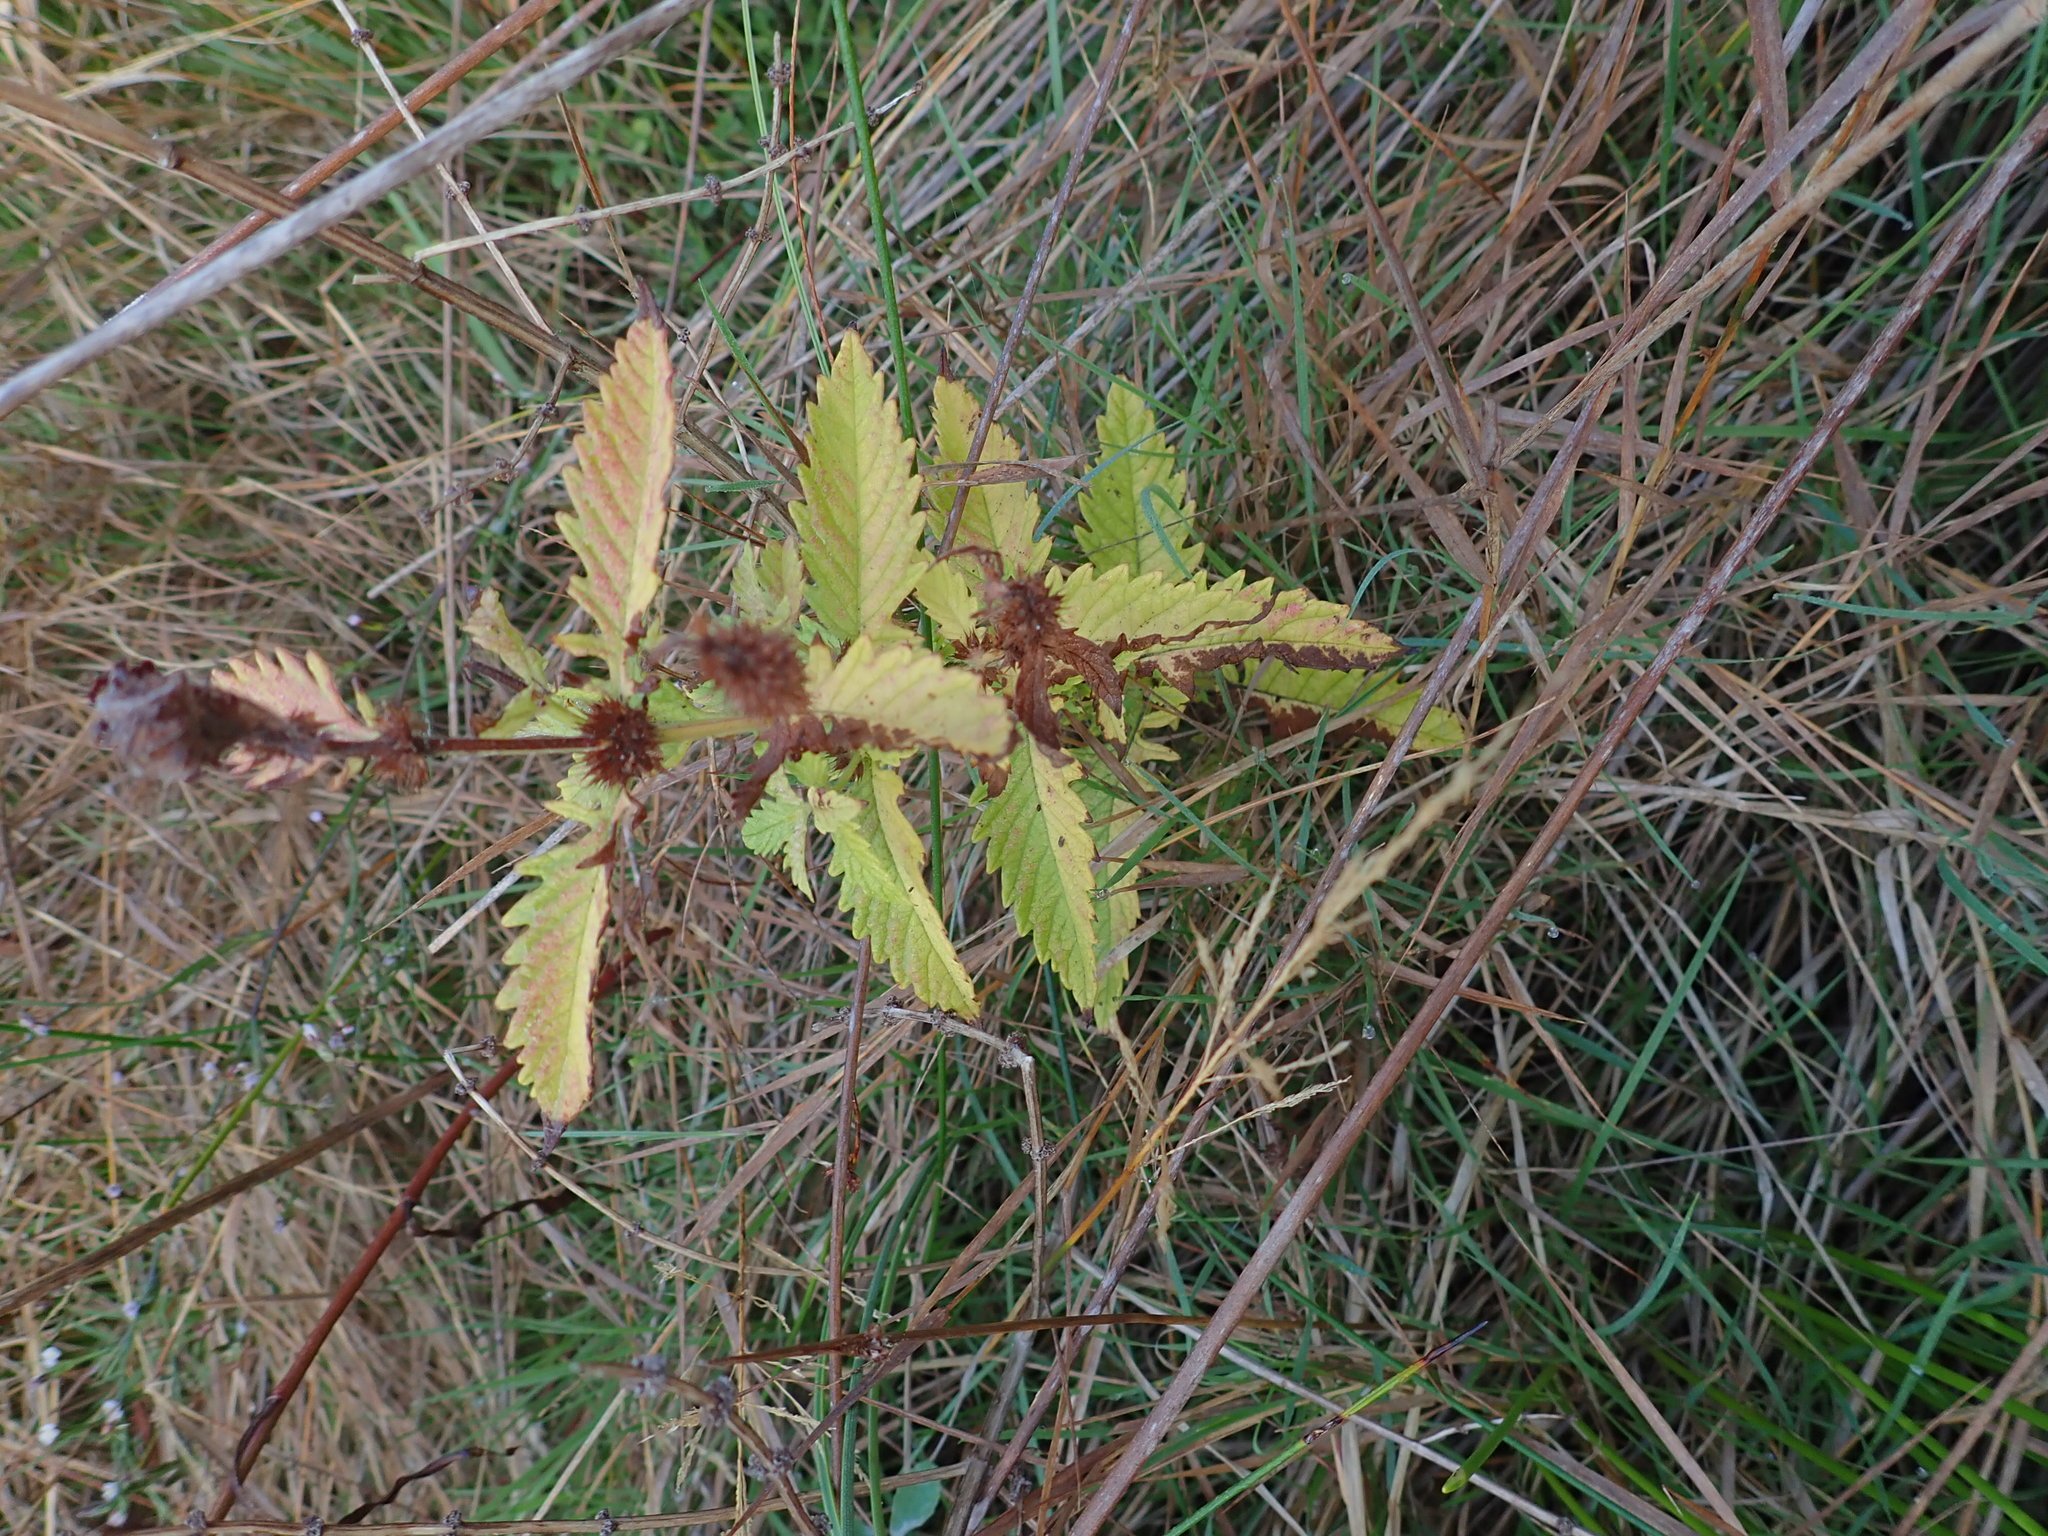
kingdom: Plantae
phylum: Tracheophyta
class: Magnoliopsida
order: Lamiales
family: Lamiaceae
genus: Lycopus
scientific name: Lycopus europaeus
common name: European bugleweed
